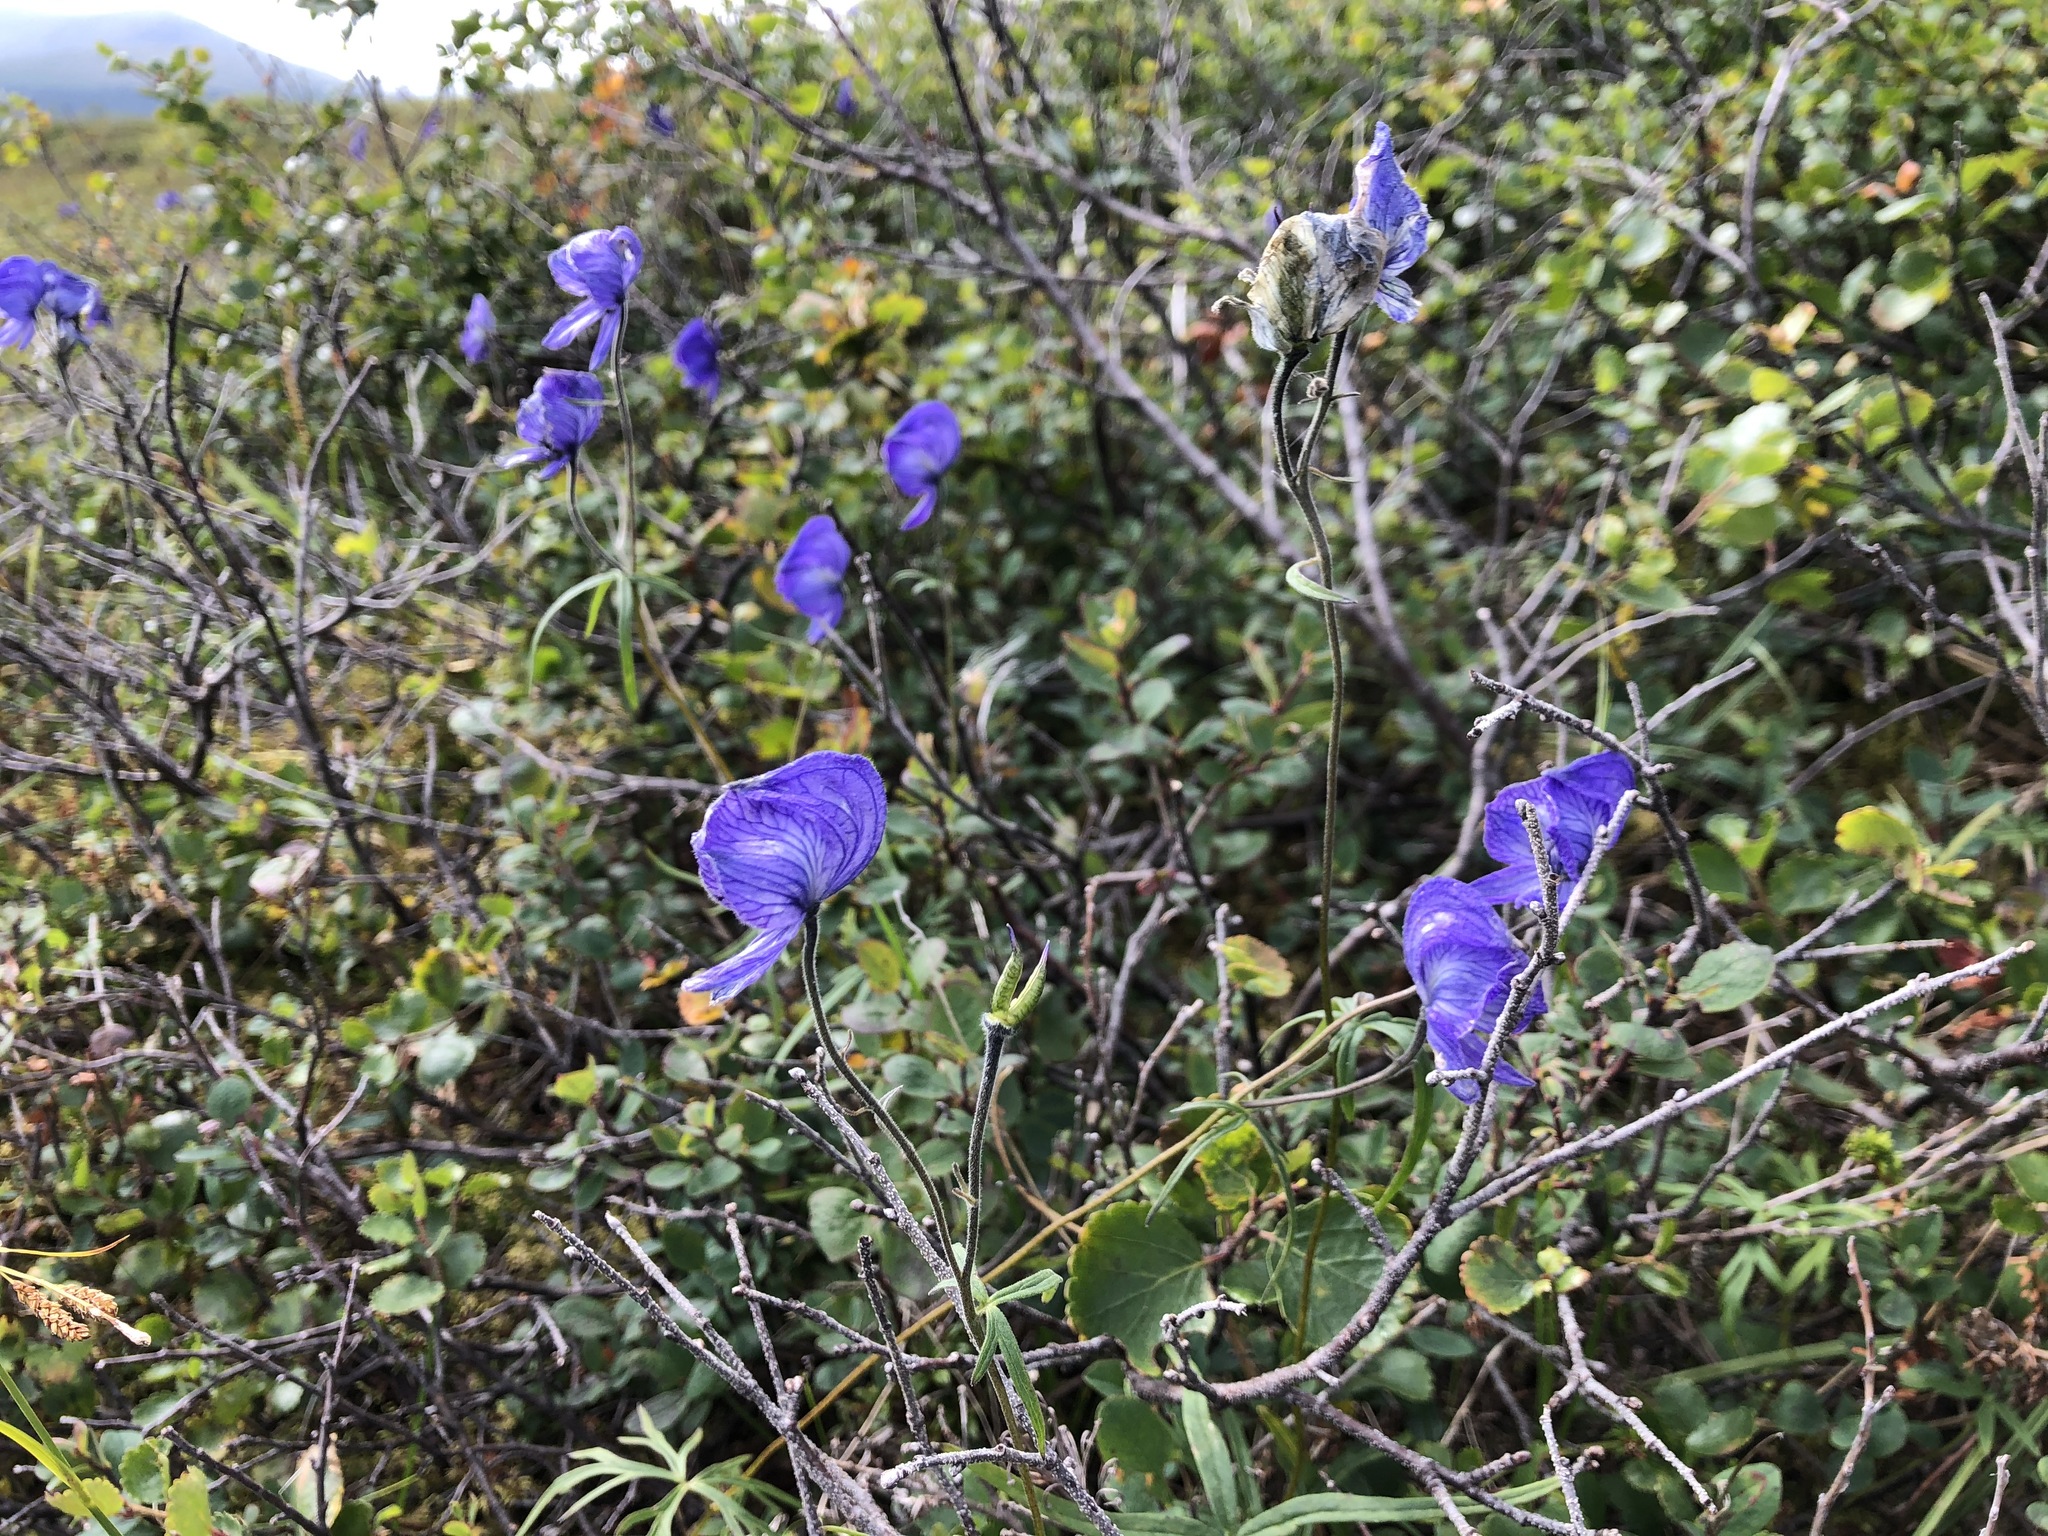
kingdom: Plantae
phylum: Tracheophyta
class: Magnoliopsida
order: Ranunculales
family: Ranunculaceae
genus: Aconitum
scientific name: Aconitum delphiniifolium
